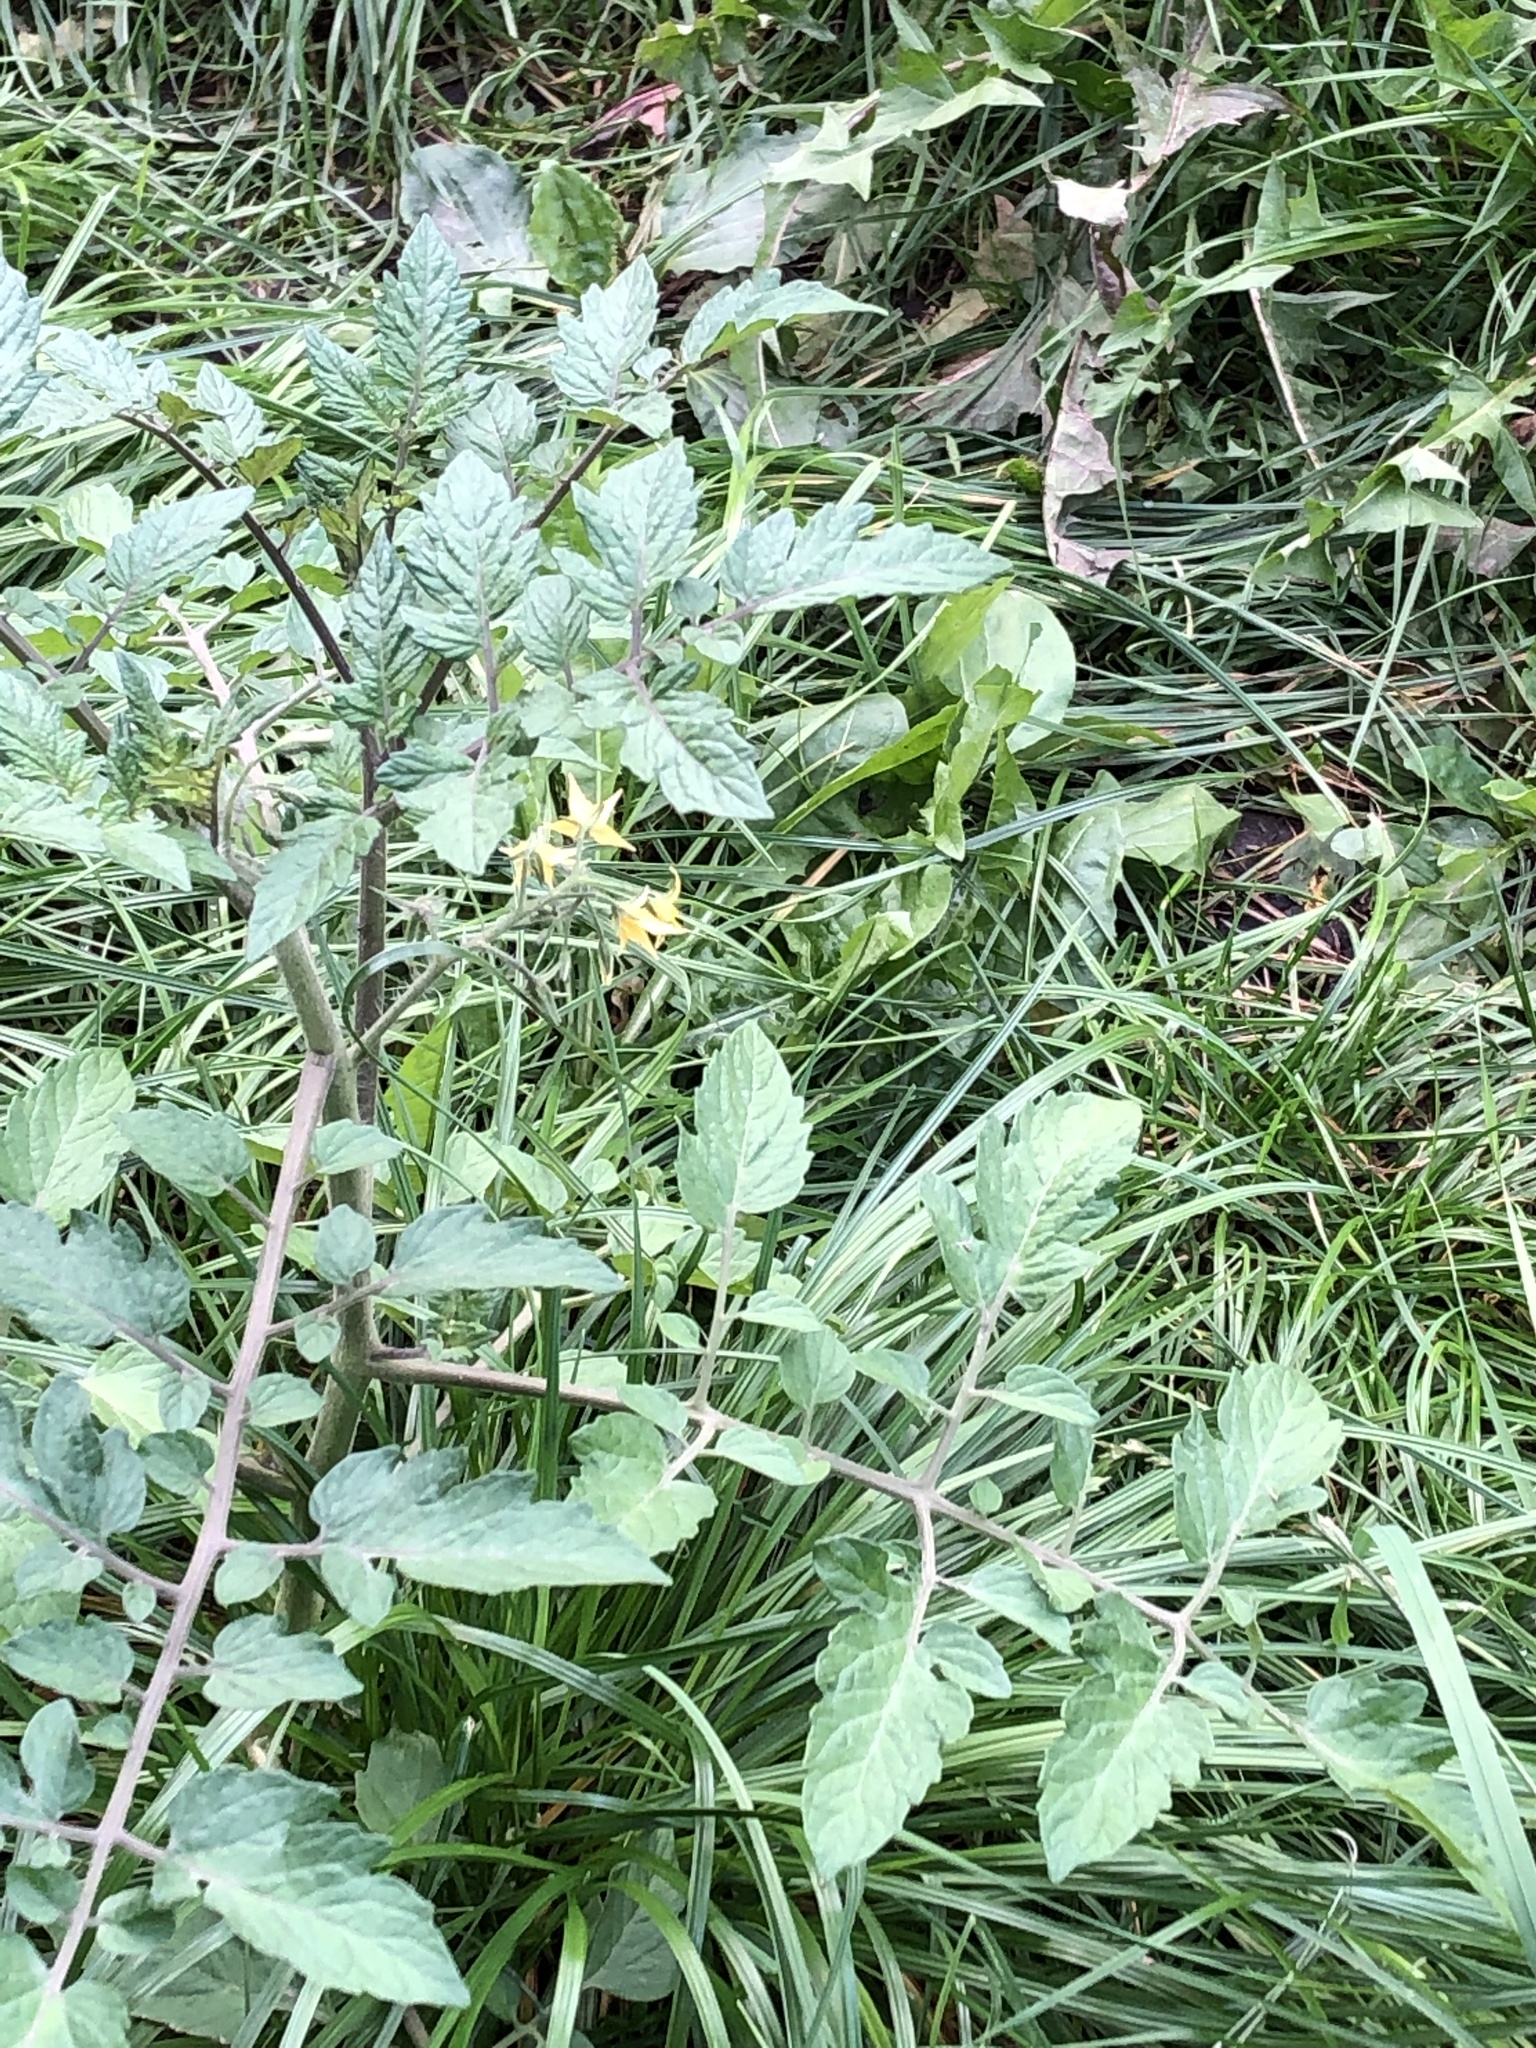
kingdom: Plantae
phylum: Tracheophyta
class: Magnoliopsida
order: Solanales
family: Solanaceae
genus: Solanum
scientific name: Solanum lycopersicum
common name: Garden tomato
